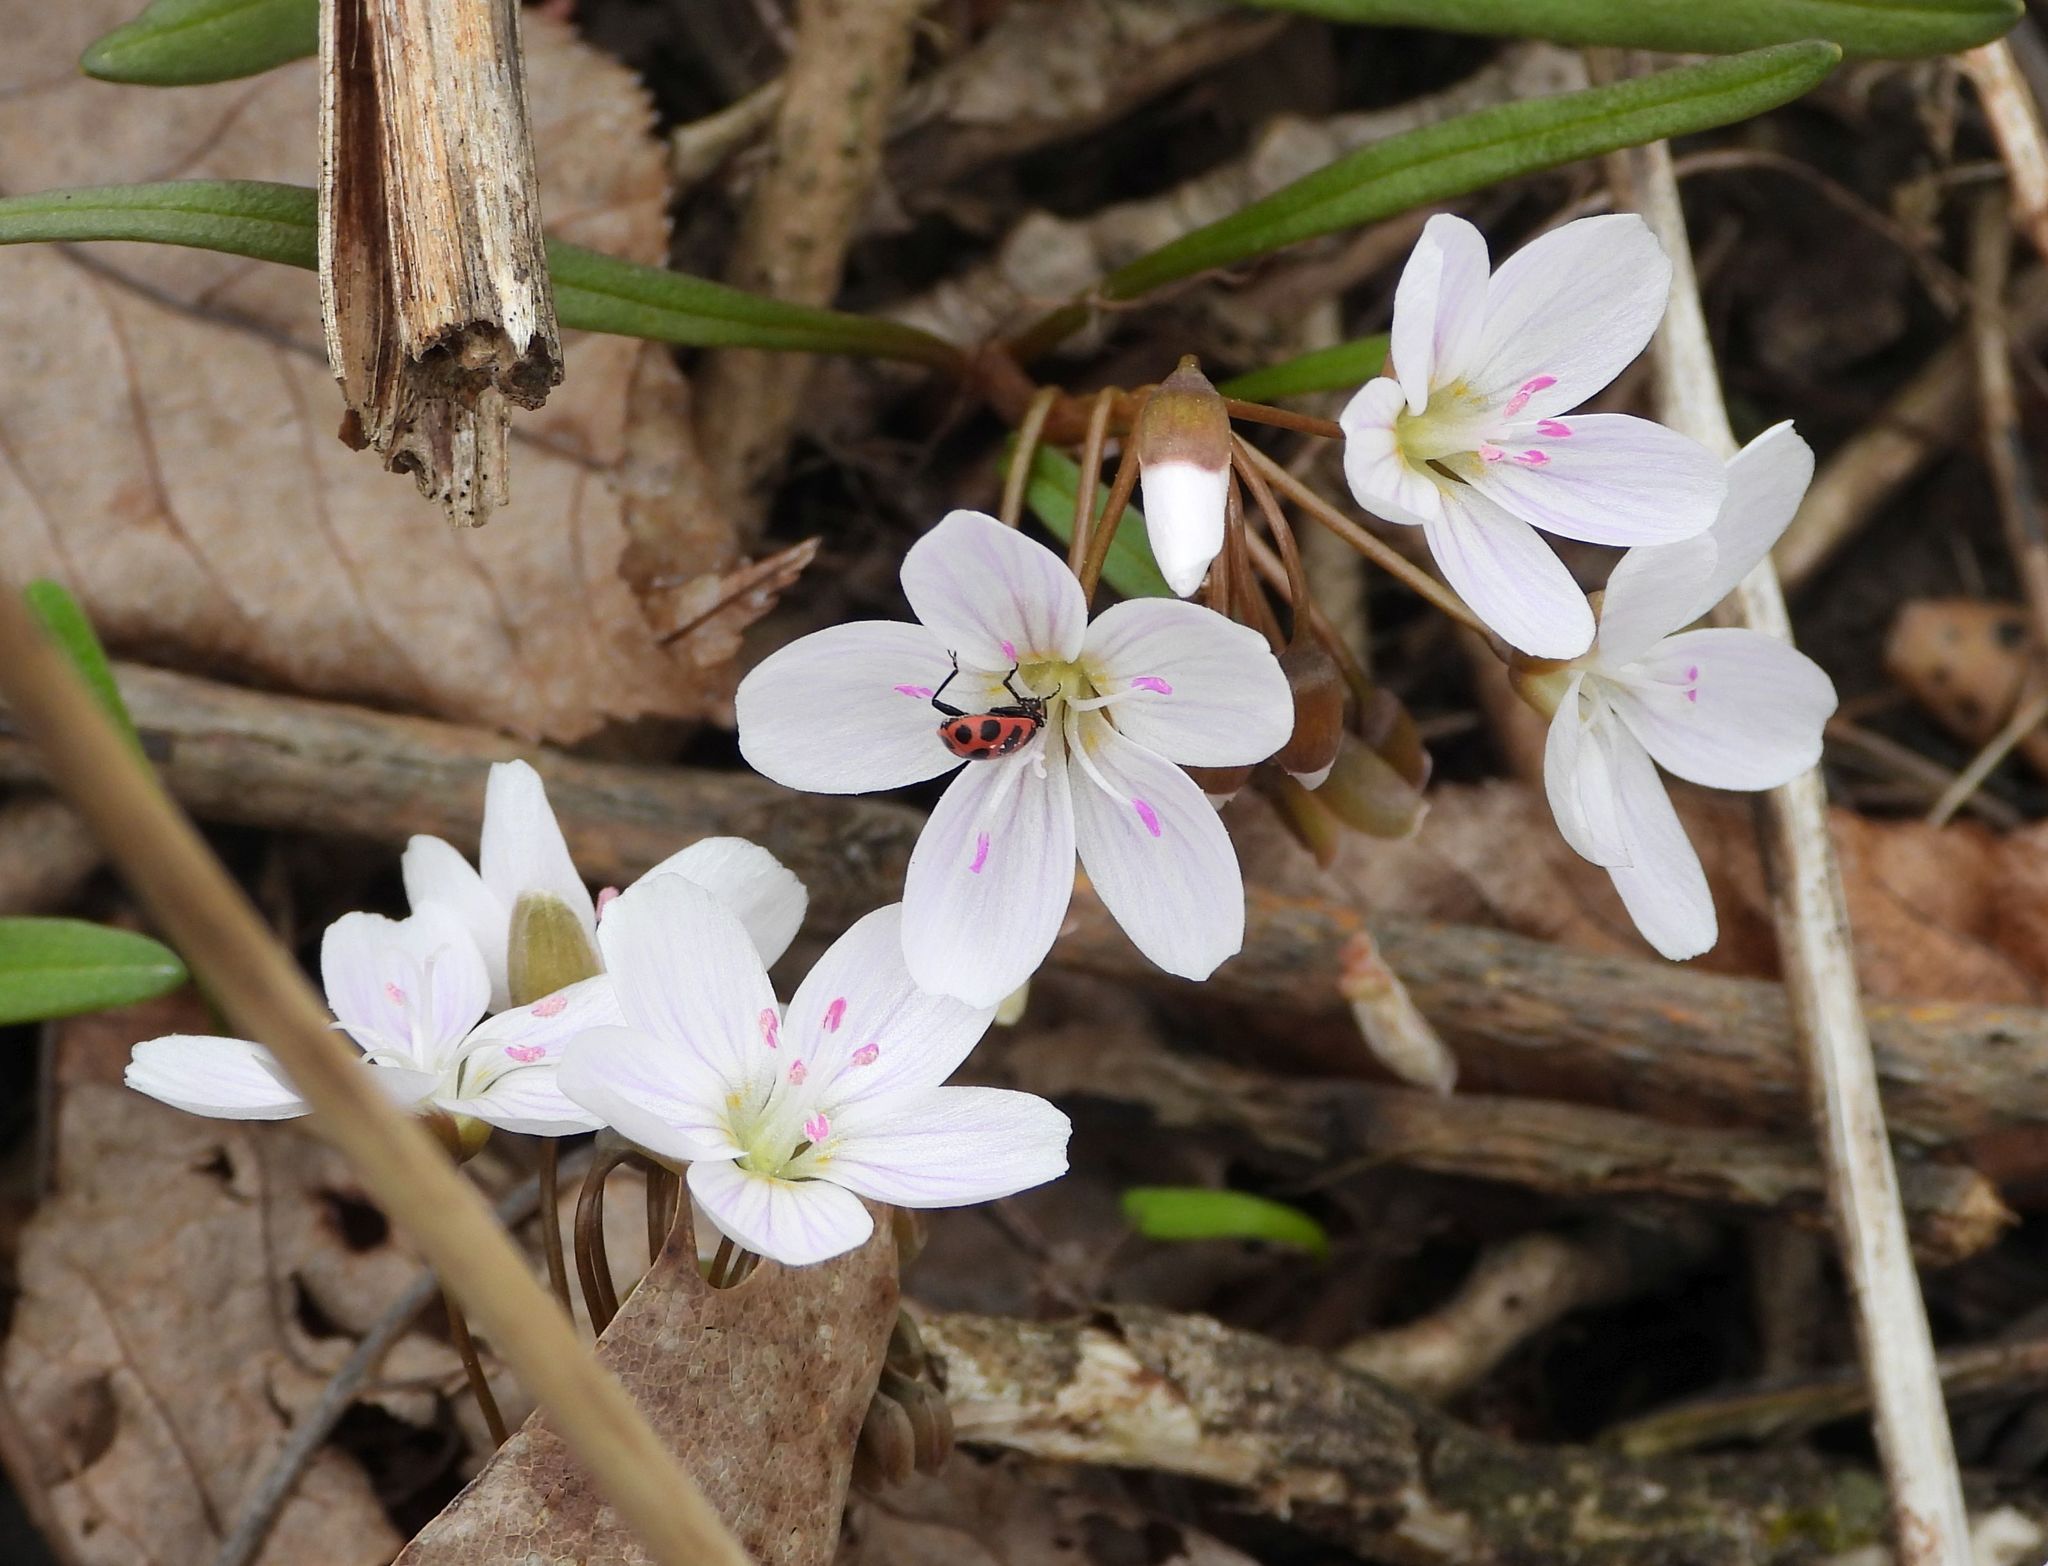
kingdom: Plantae
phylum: Tracheophyta
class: Magnoliopsida
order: Caryophyllales
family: Montiaceae
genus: Claytonia
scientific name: Claytonia virginica
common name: Virginia springbeauty
